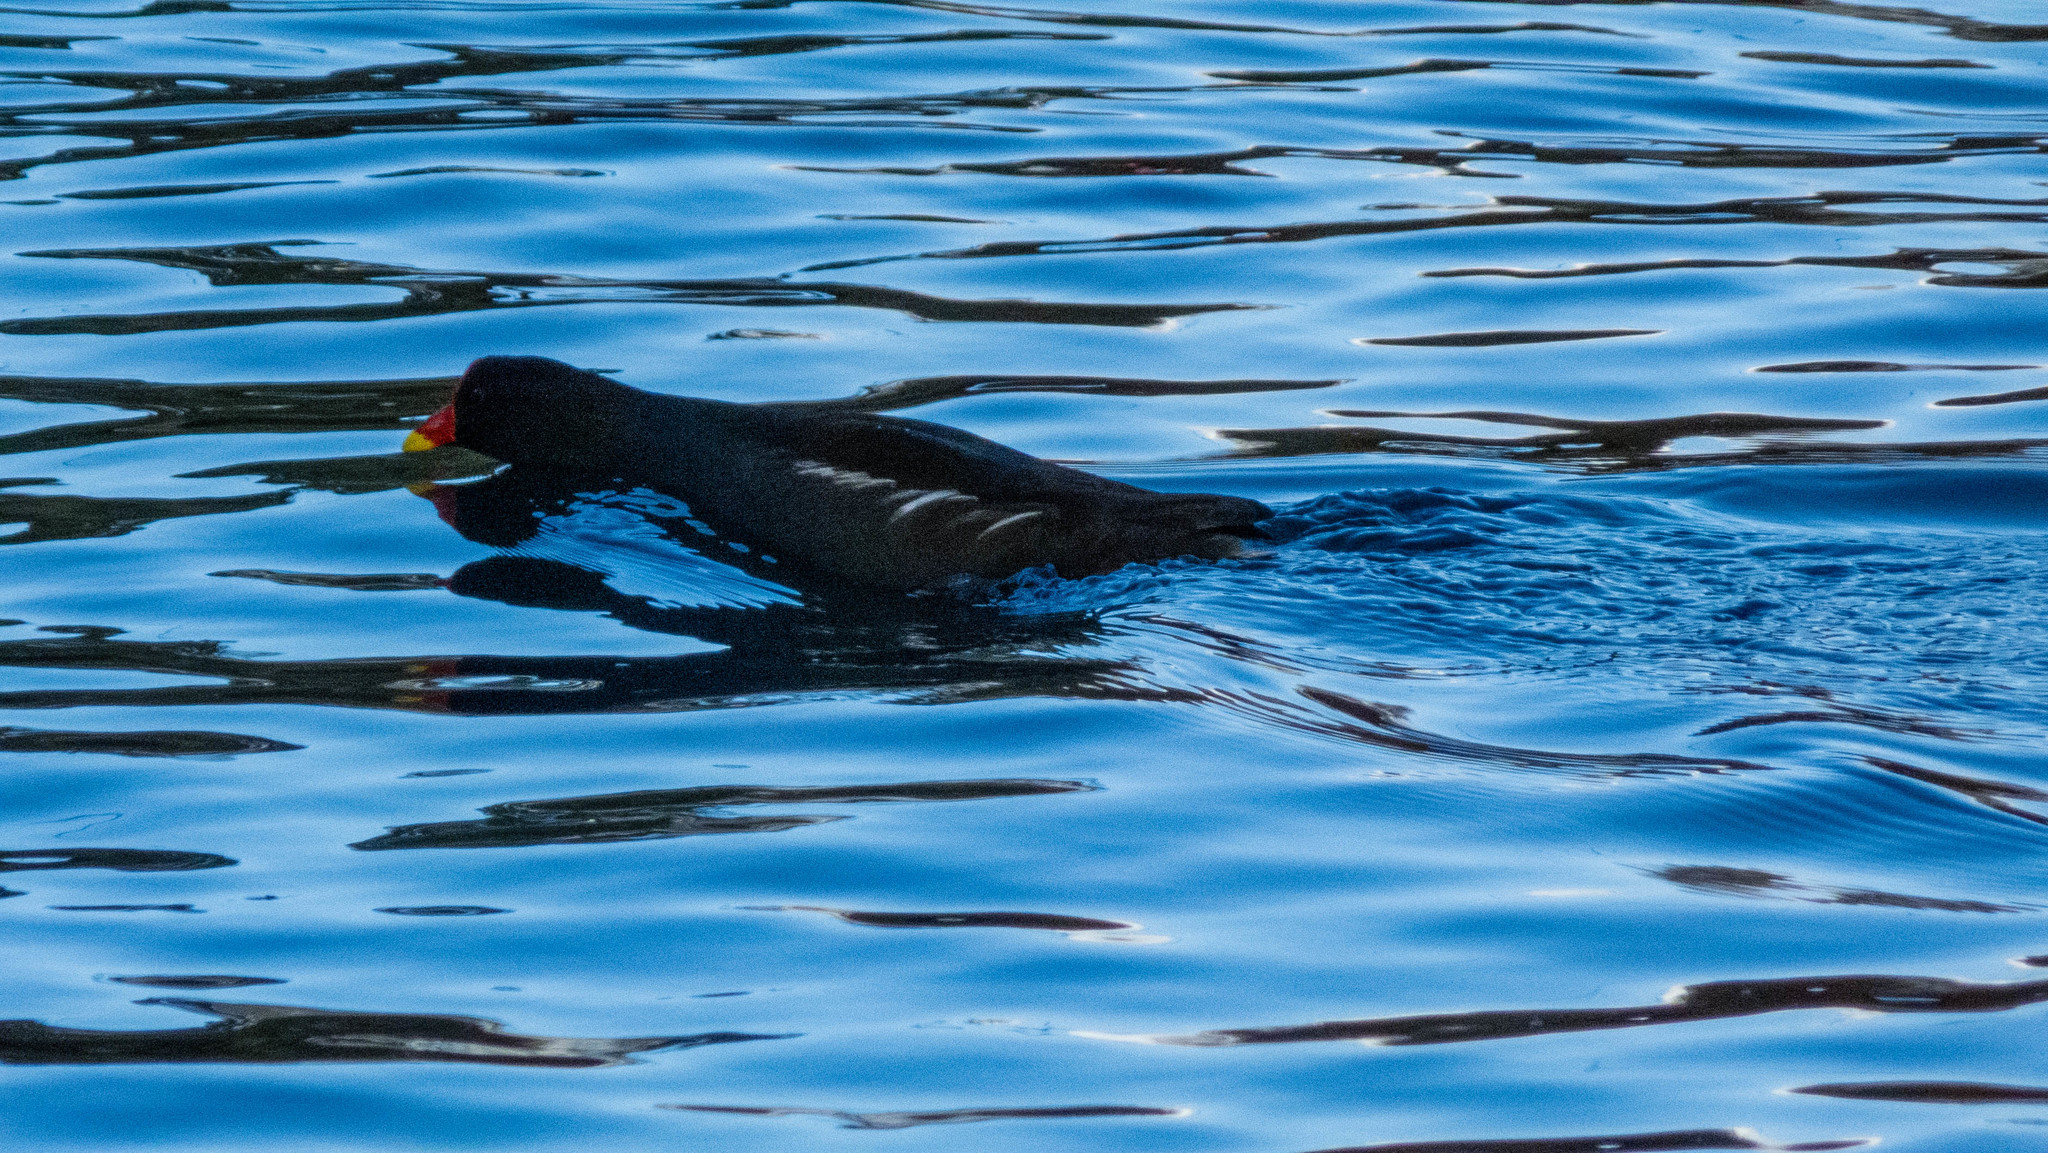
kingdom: Animalia
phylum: Chordata
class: Aves
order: Gruiformes
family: Rallidae
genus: Gallinula
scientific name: Gallinula chloropus
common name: Common moorhen
